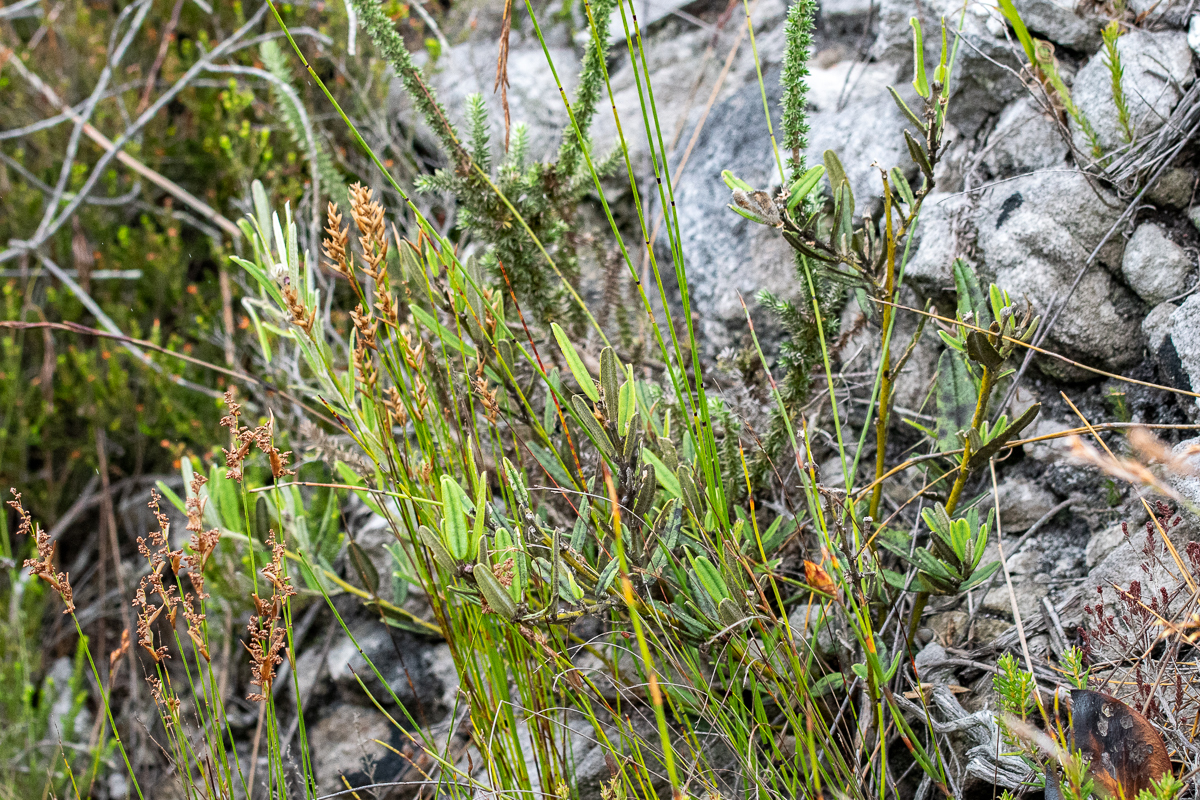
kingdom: Plantae
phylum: Tracheophyta
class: Magnoliopsida
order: Fabales
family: Fabaceae
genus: Podalyria
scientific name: Podalyria oleifolia
